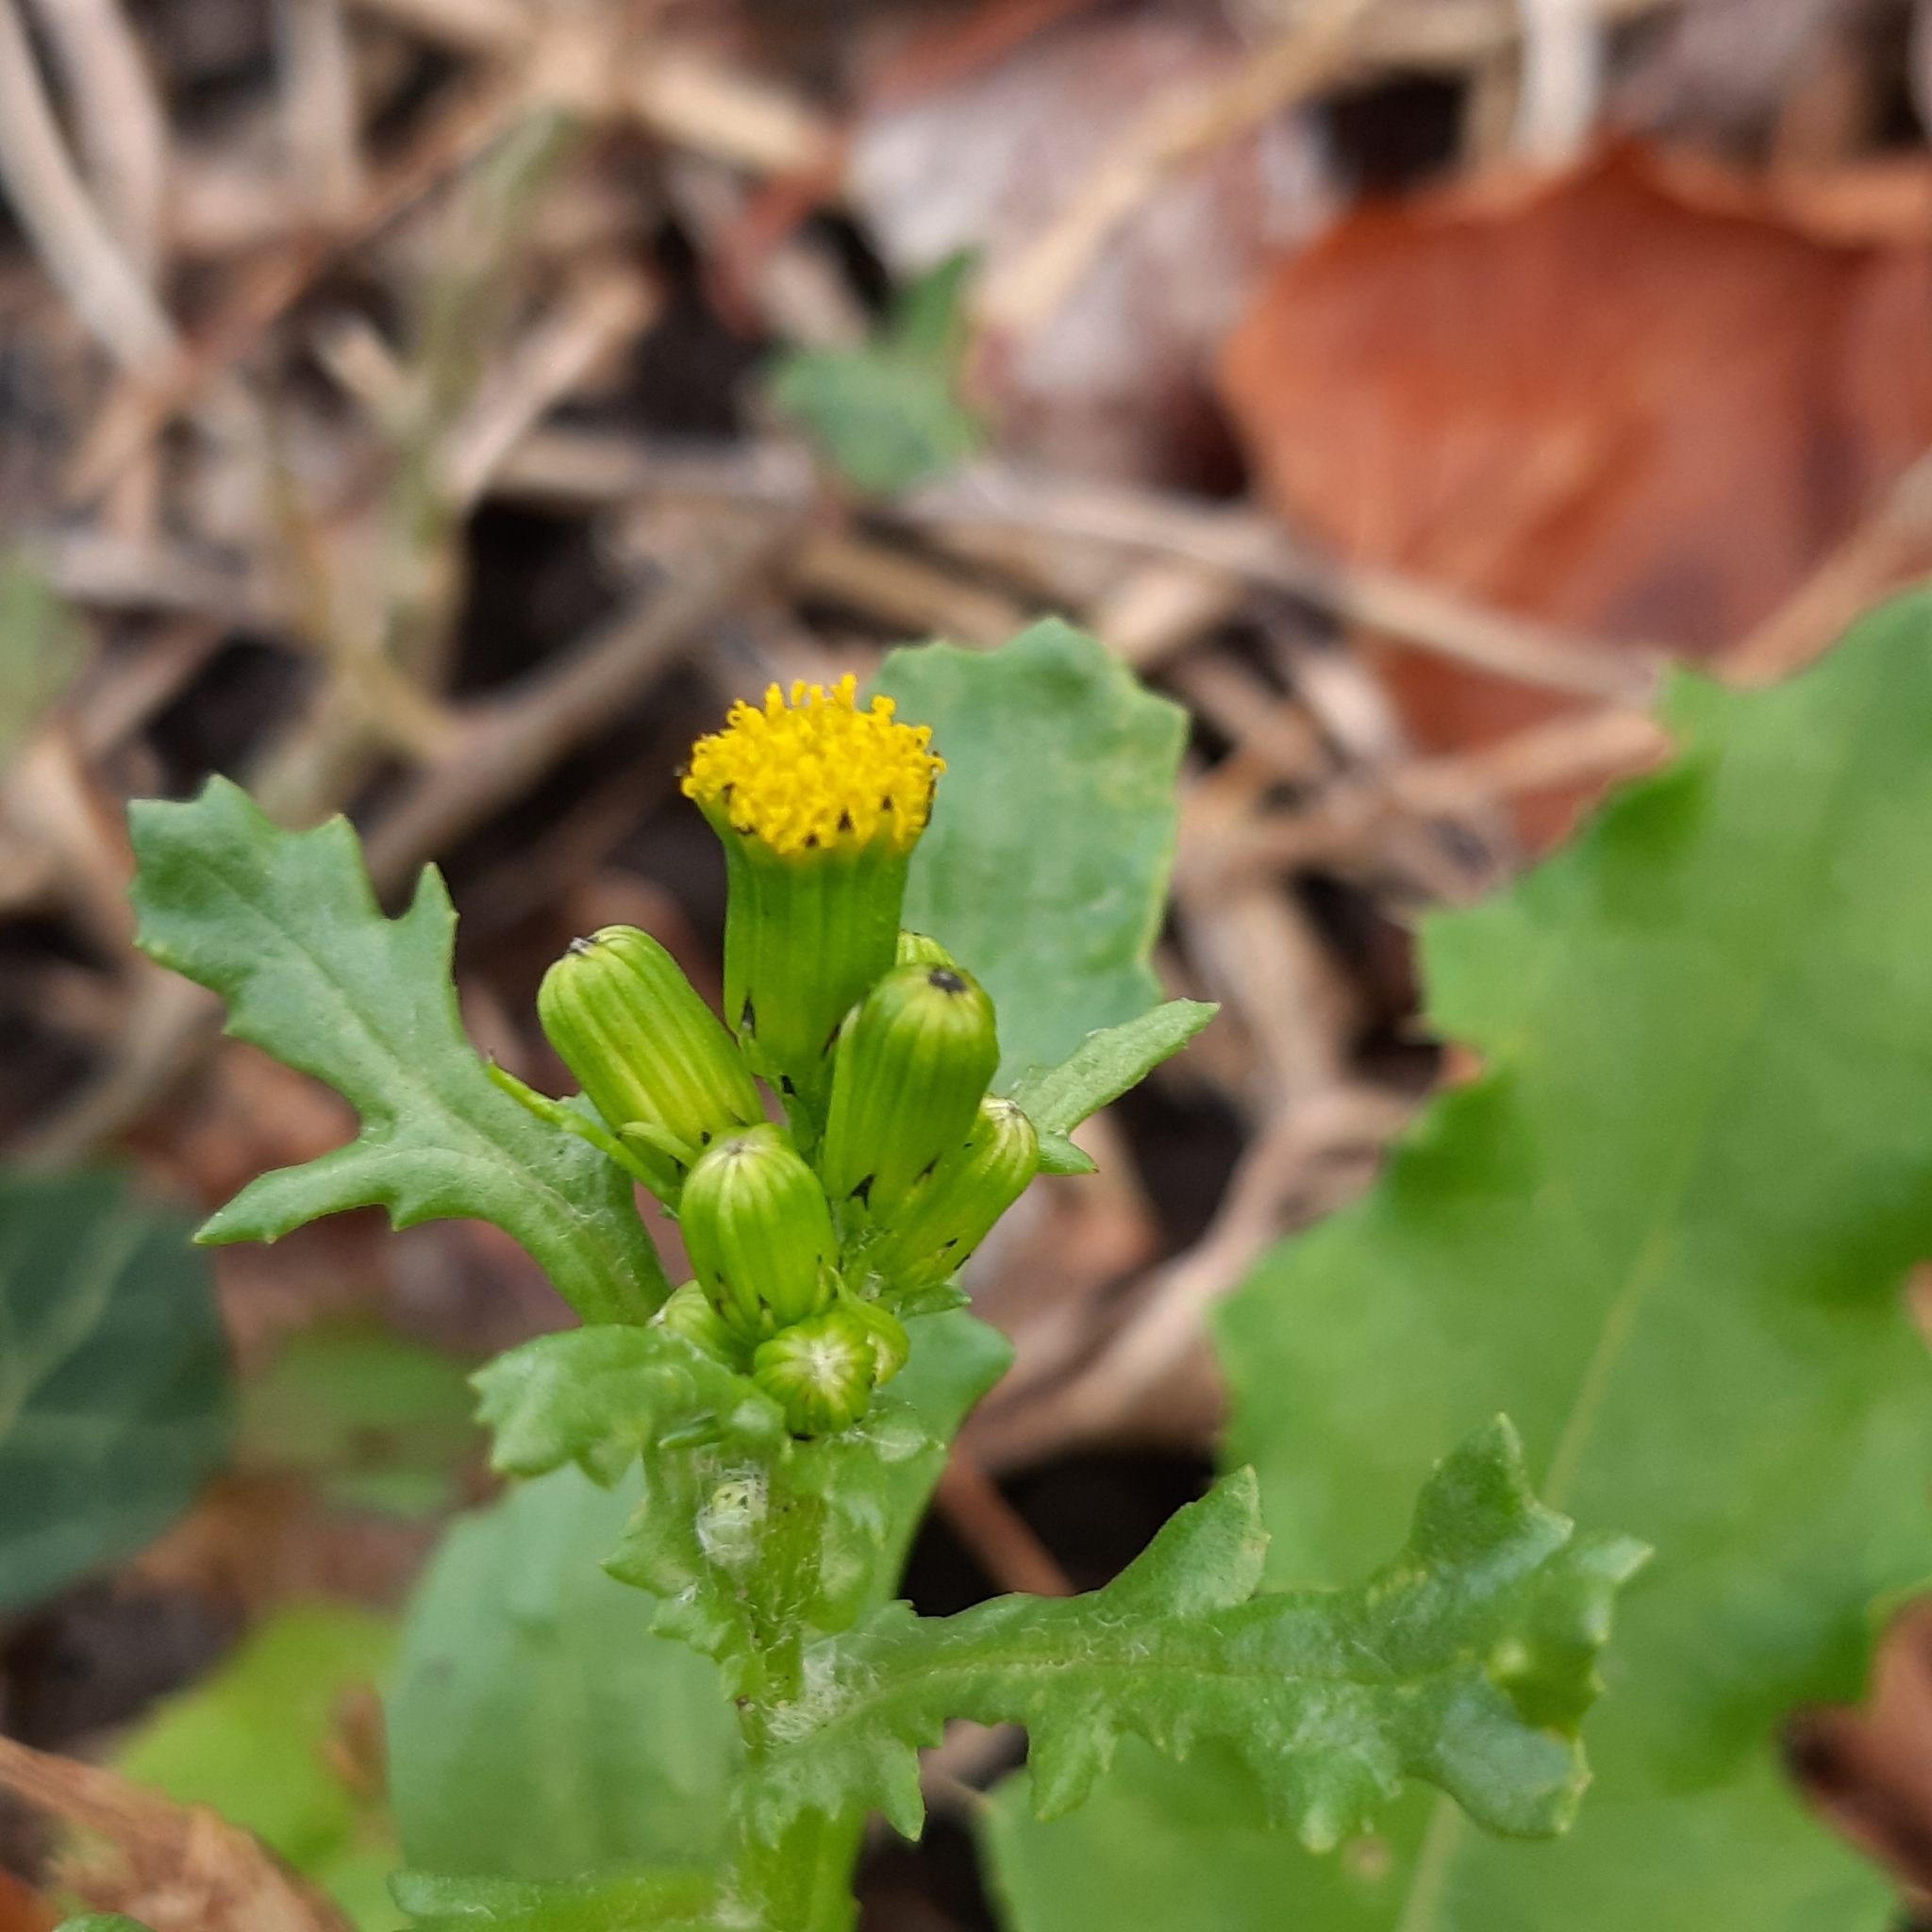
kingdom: Plantae
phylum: Tracheophyta
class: Magnoliopsida
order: Asterales
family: Asteraceae
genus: Senecio
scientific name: Senecio vulgaris
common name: Old-man-in-the-spring
